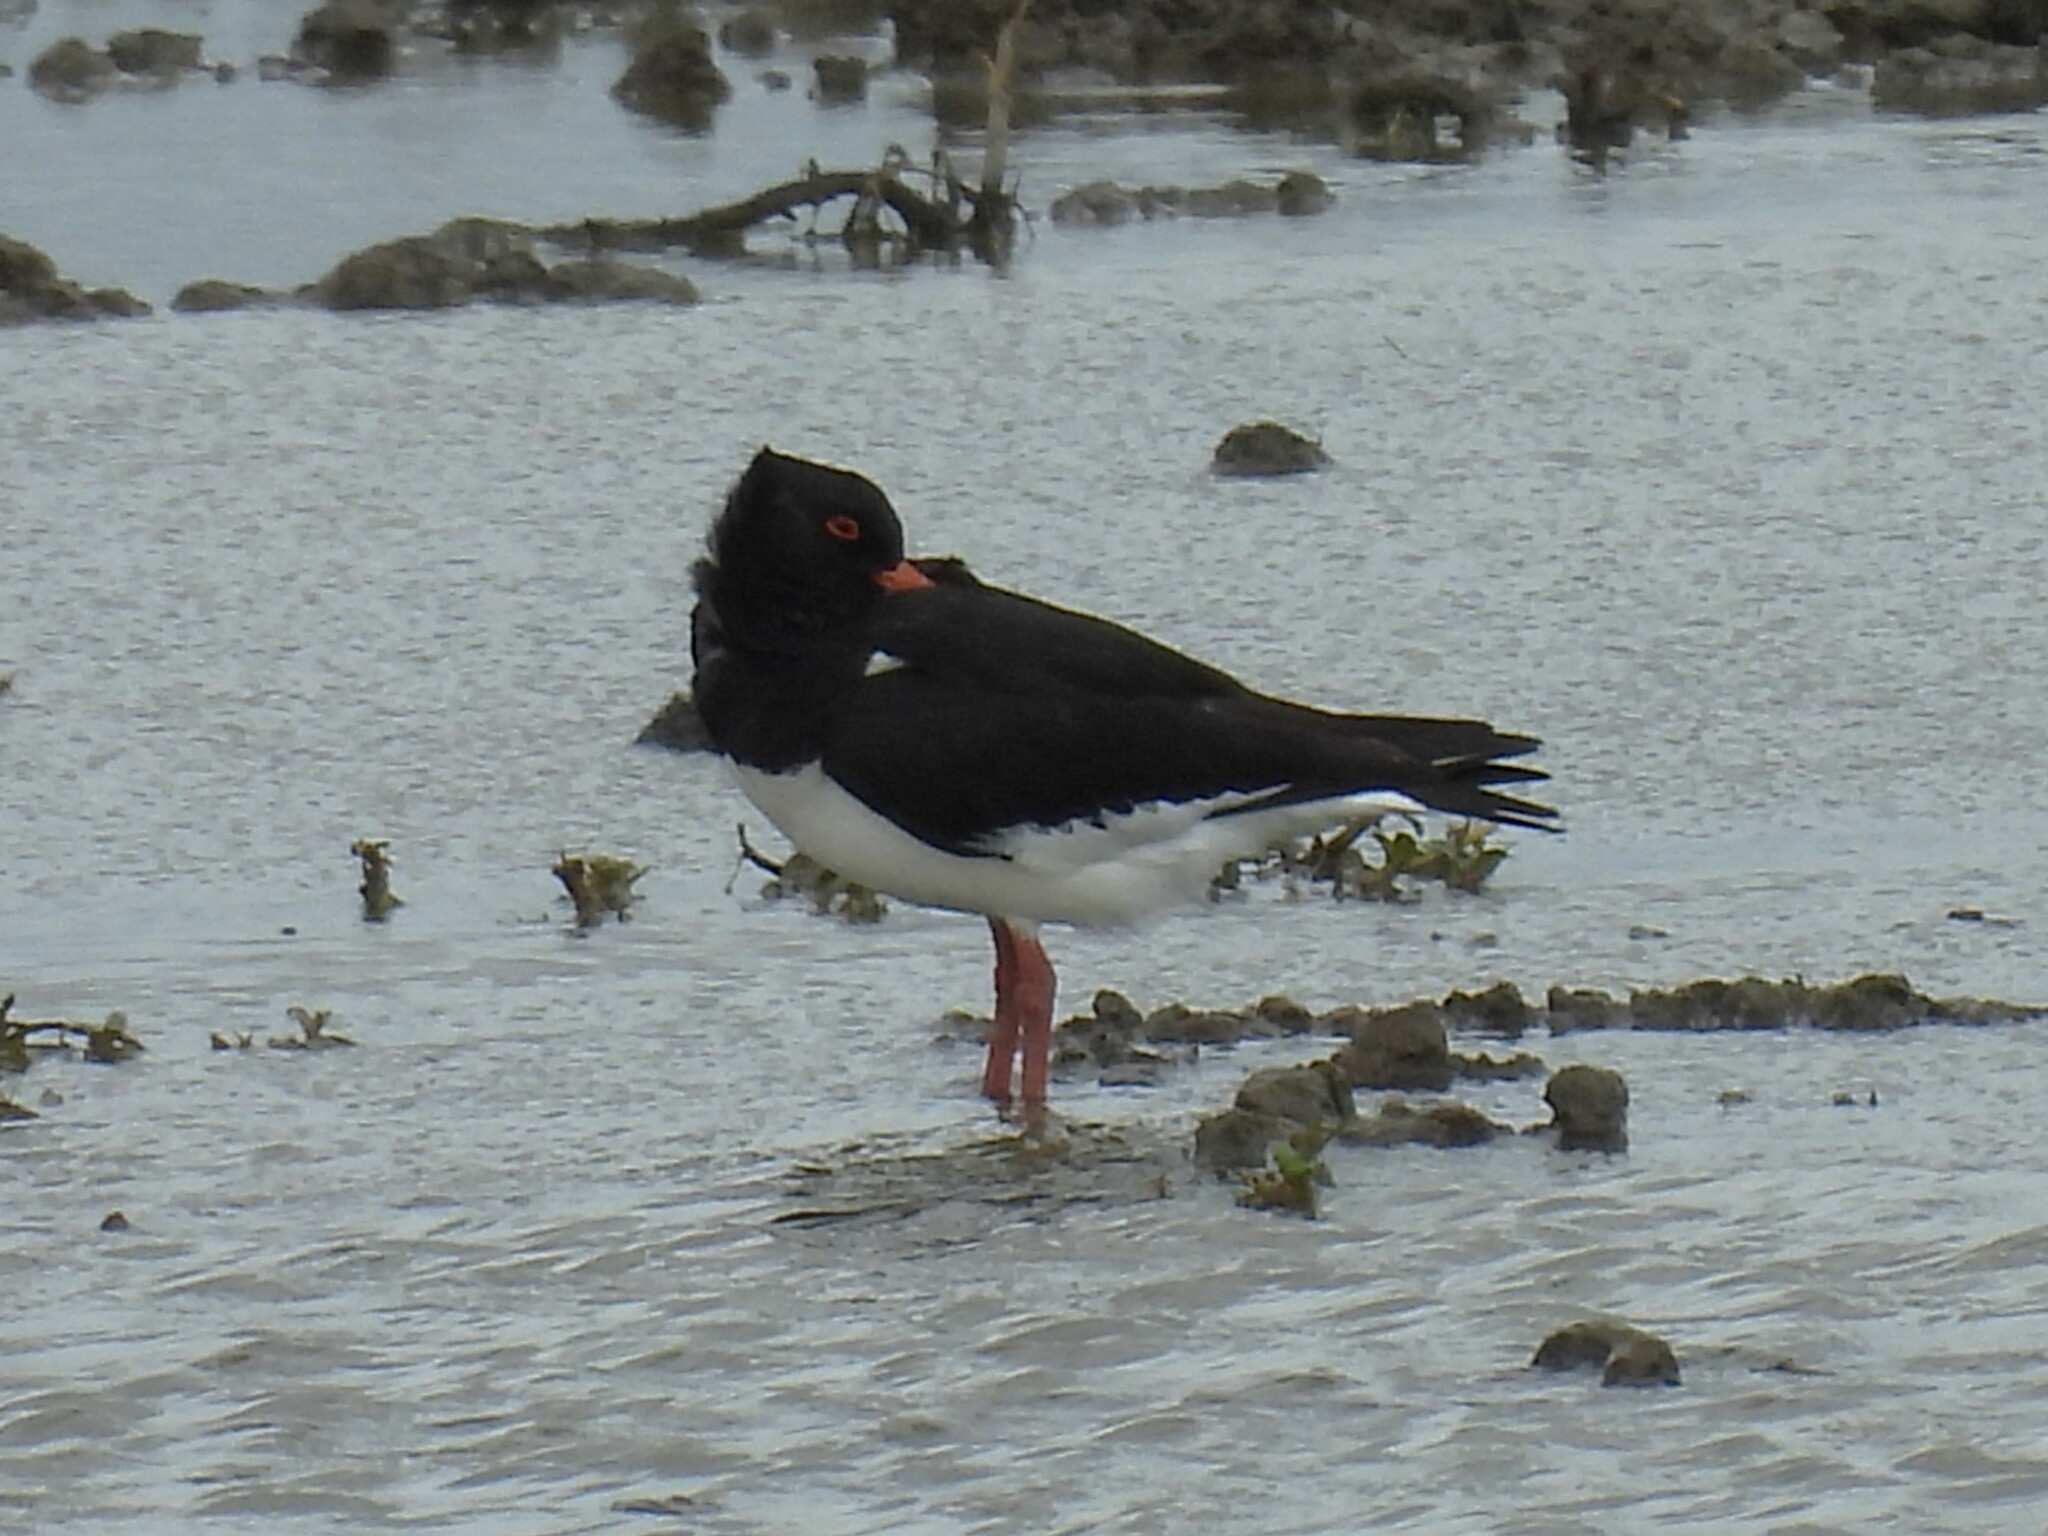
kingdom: Animalia
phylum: Chordata
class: Aves
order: Charadriiformes
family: Haematopodidae
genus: Haematopus
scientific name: Haematopus ostralegus
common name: Eurasian oystercatcher
